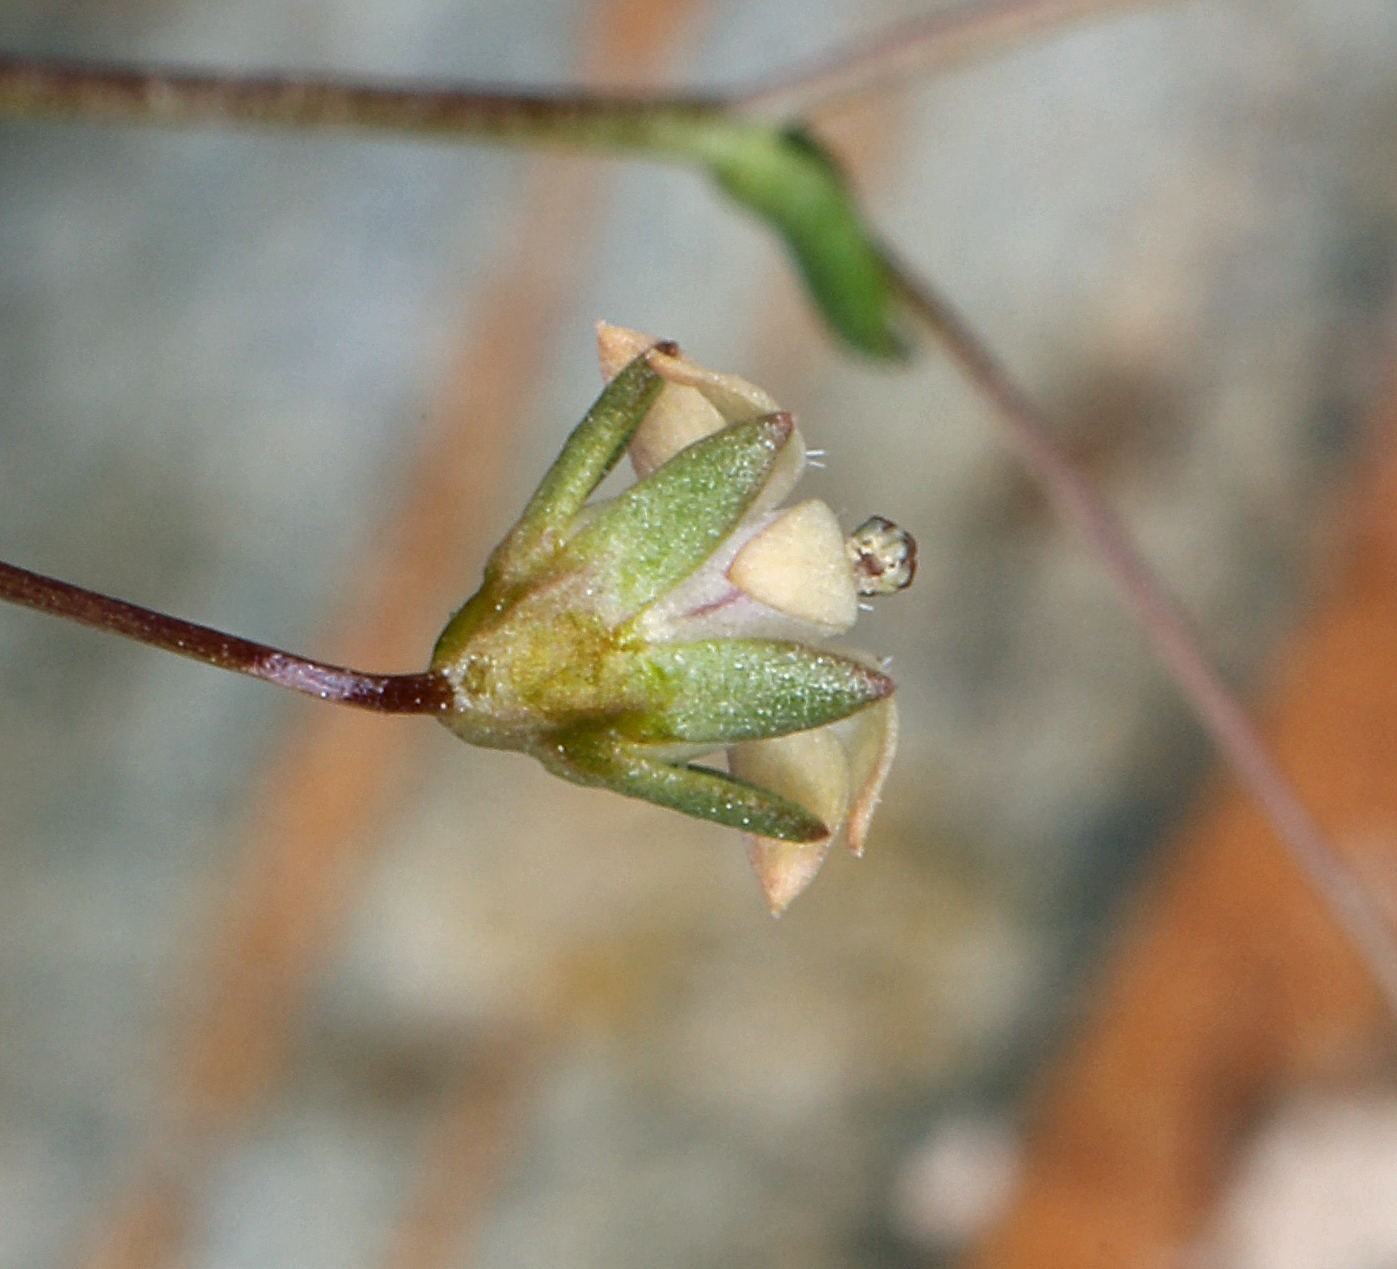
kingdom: Plantae
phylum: Tracheophyta
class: Magnoliopsida
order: Asterales
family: Campanulaceae
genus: Nemacladus
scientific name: Nemacladus inyoensis
